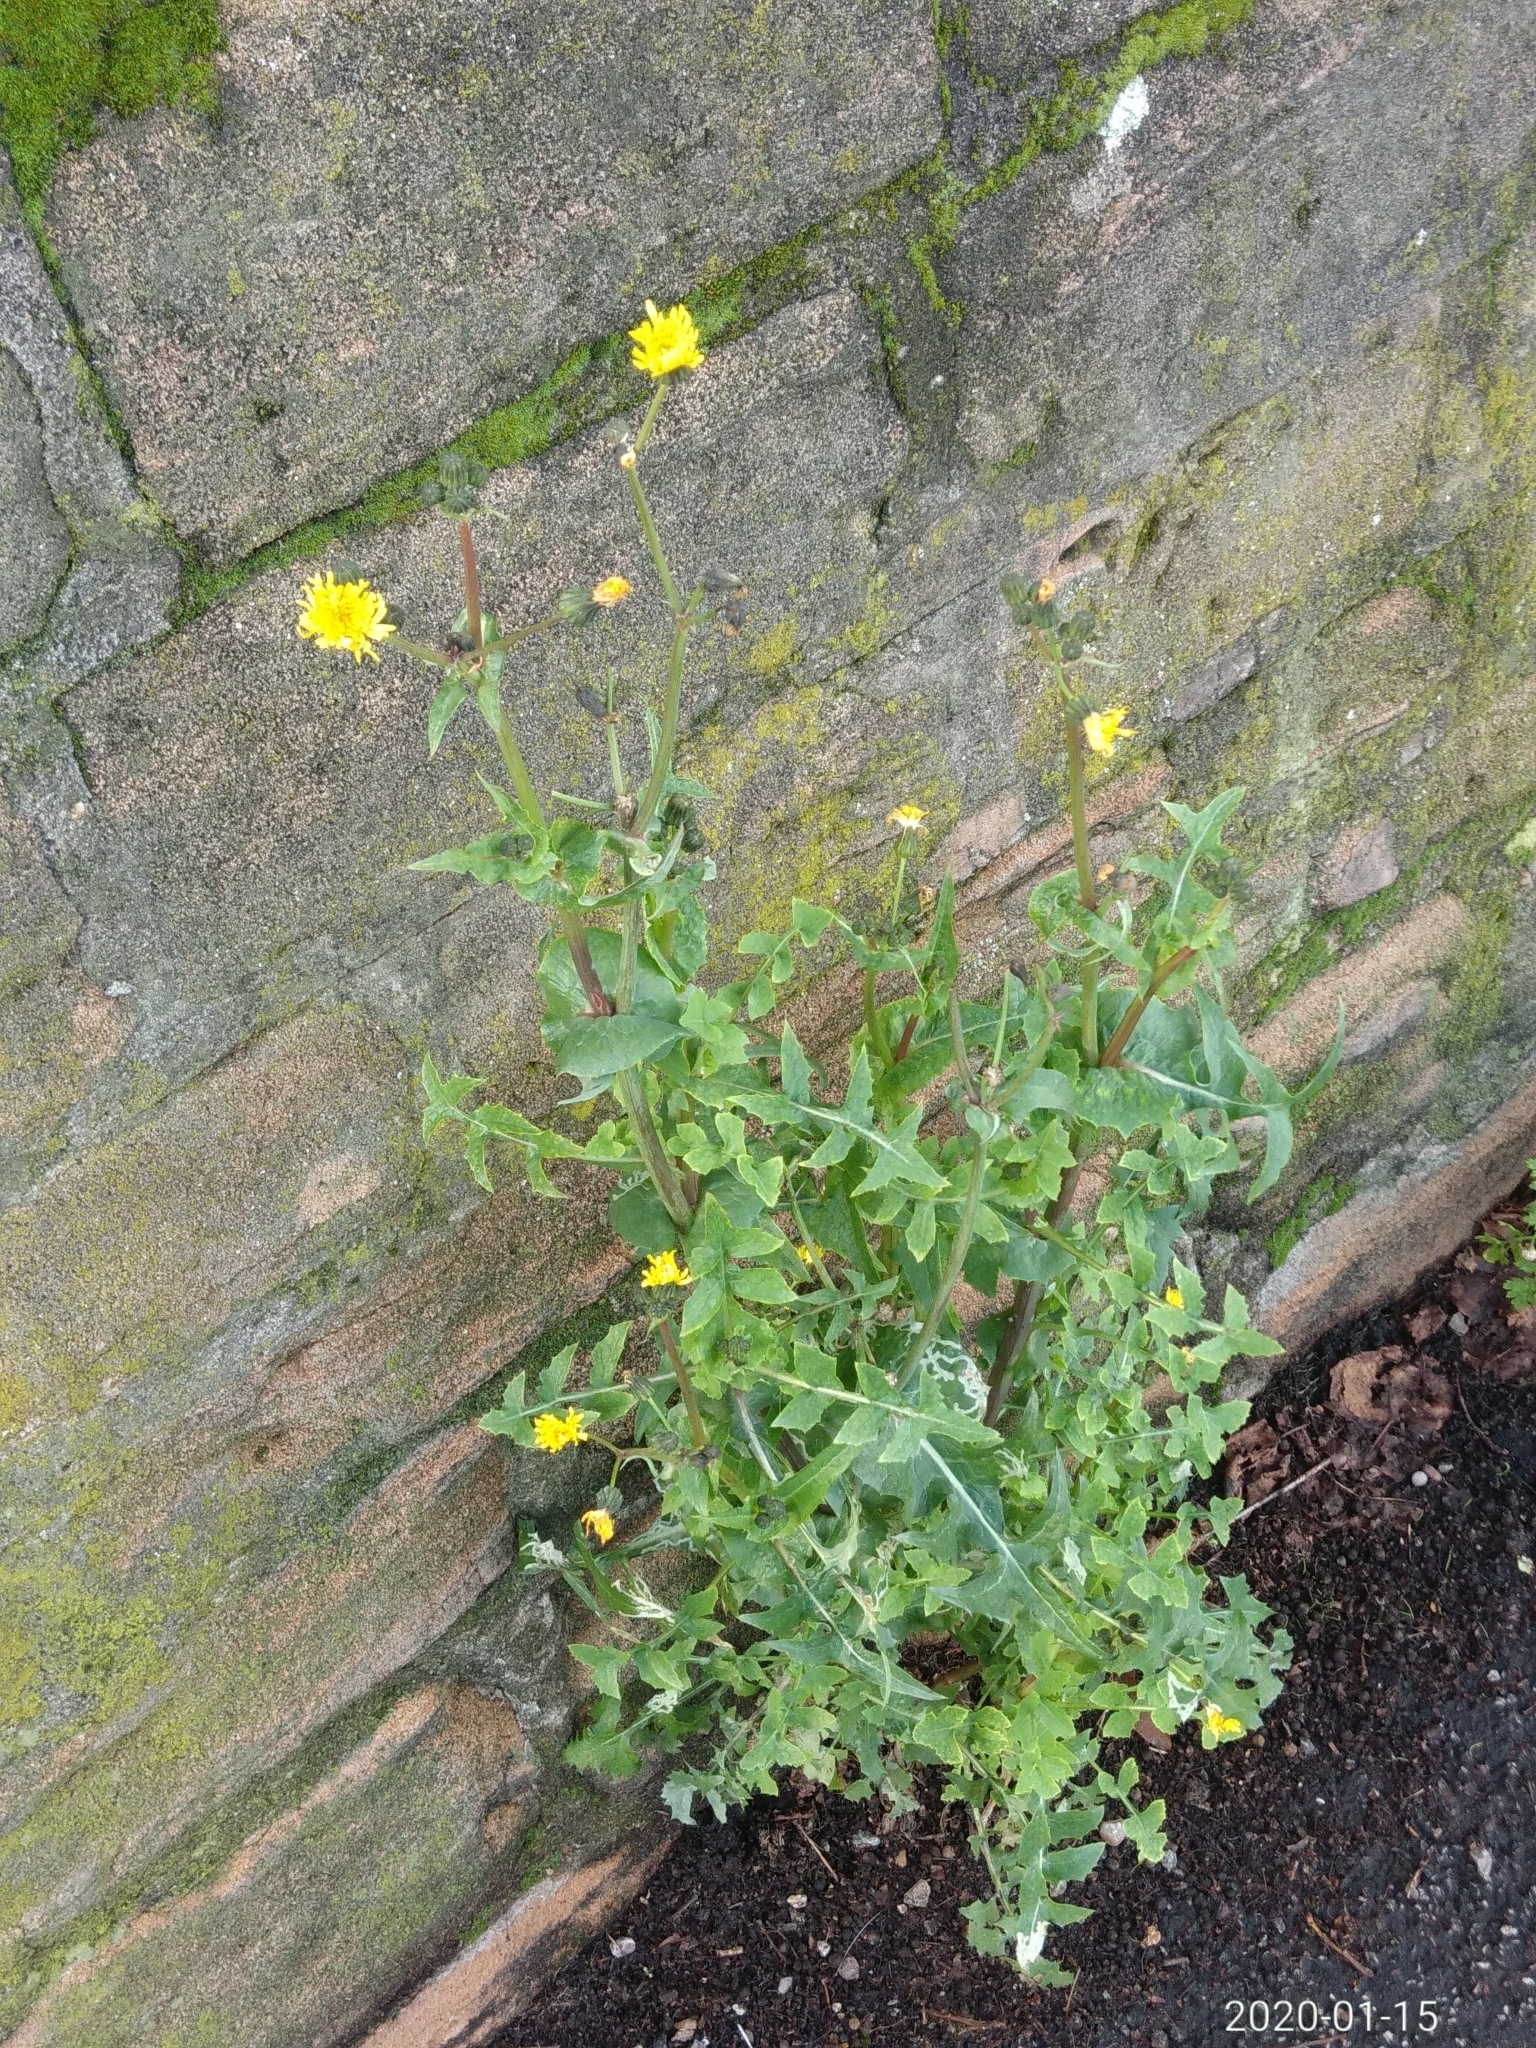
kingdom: Plantae
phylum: Tracheophyta
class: Magnoliopsida
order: Asterales
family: Asteraceae
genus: Sonchus
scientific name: Sonchus oleraceus
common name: Common sowthistle
